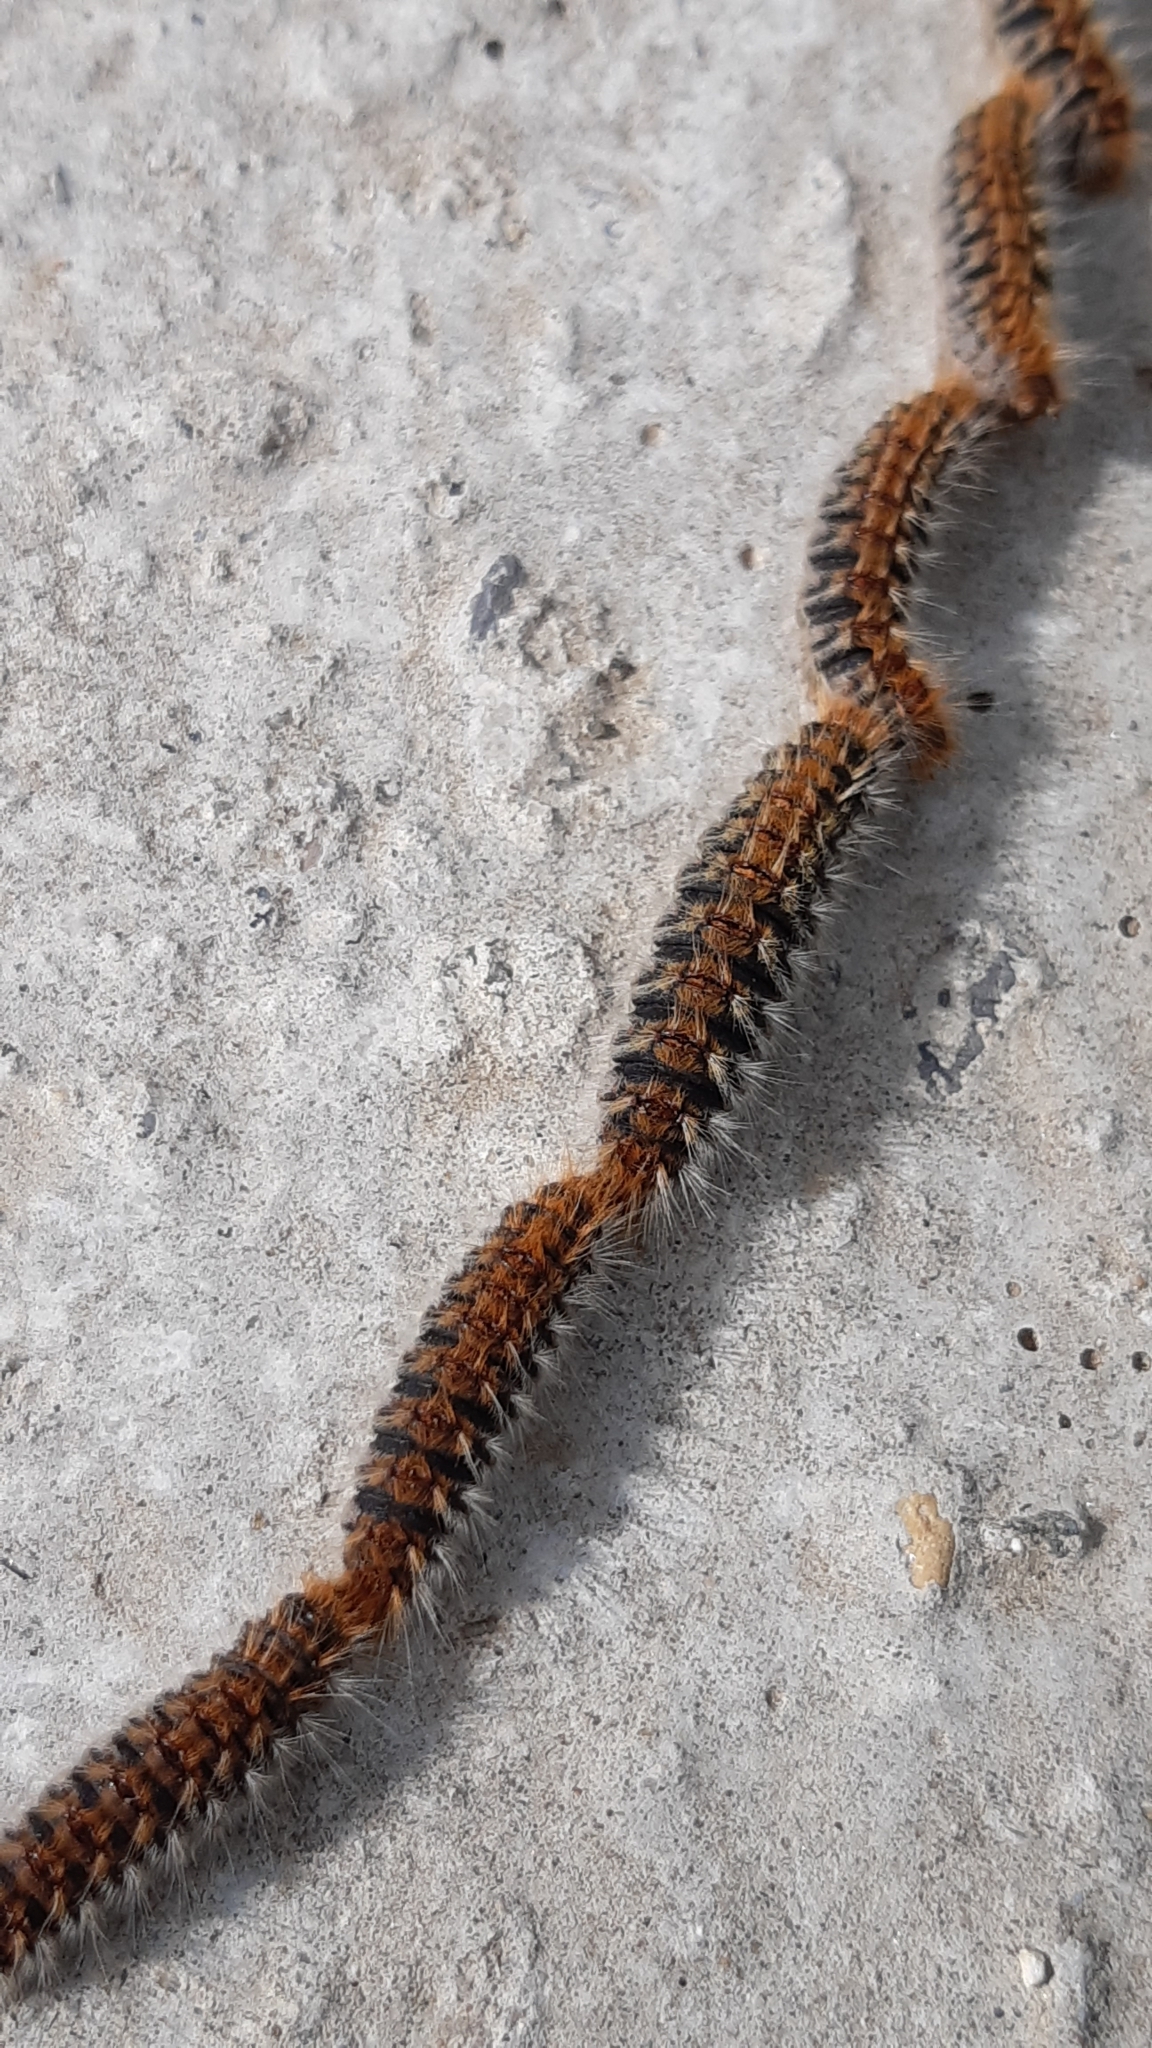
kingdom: Animalia
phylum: Arthropoda
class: Insecta
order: Lepidoptera
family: Notodontidae
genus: Thaumetopoea
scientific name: Thaumetopoea pityocampa
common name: Pine processionary
